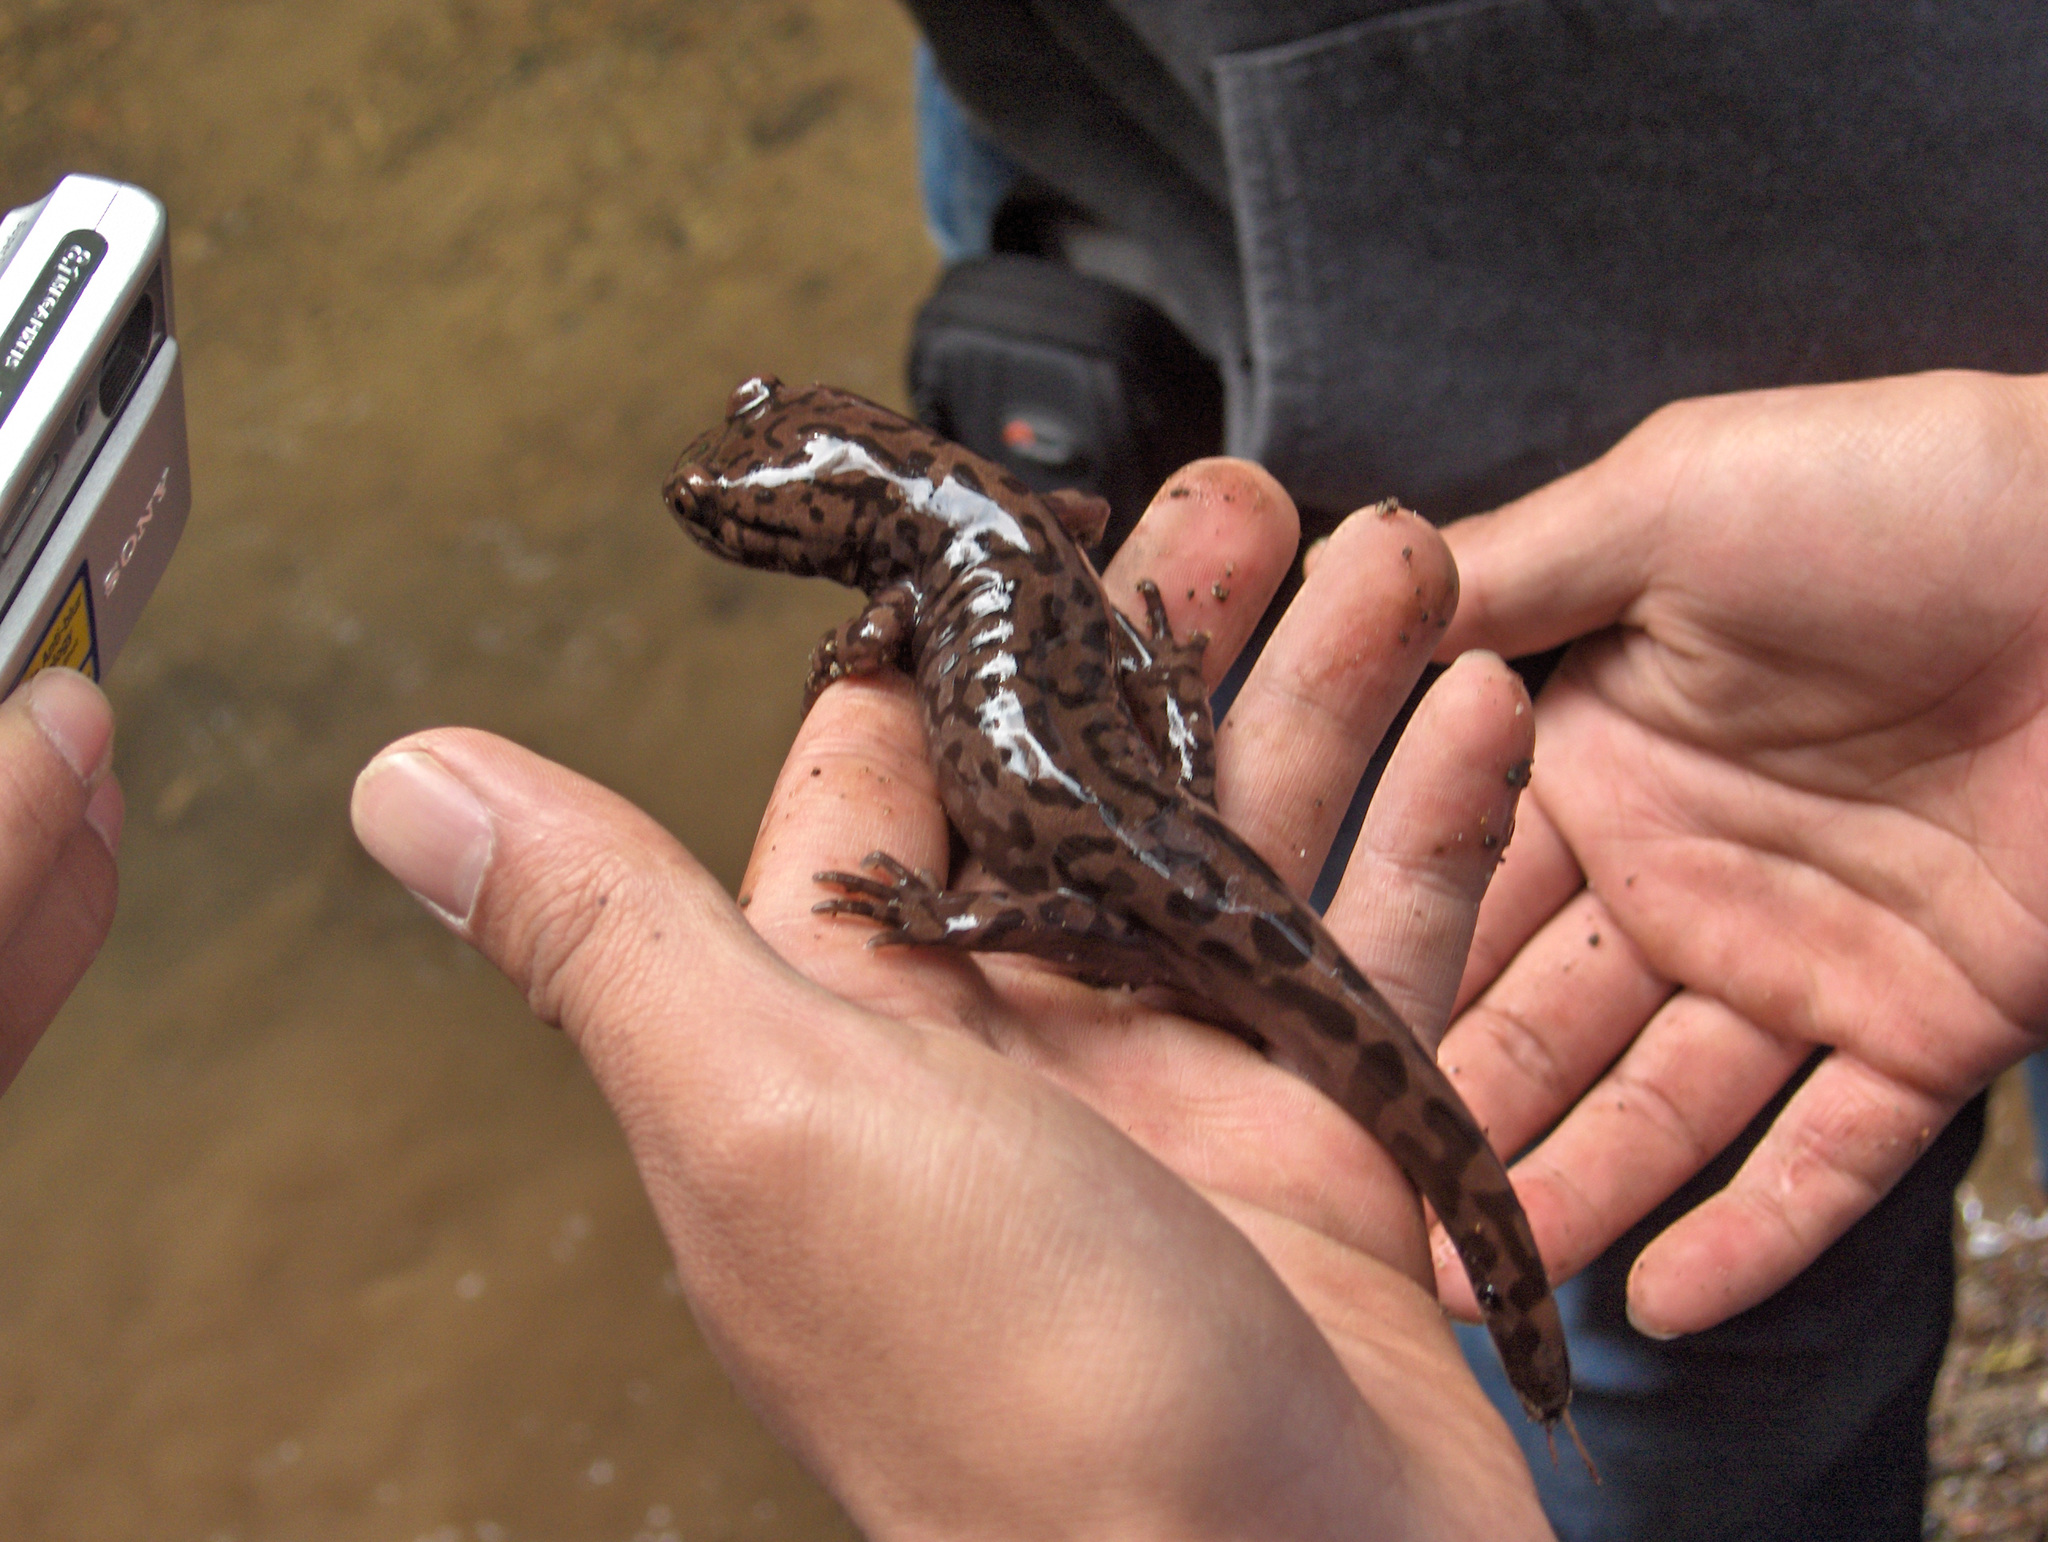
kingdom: Animalia
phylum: Chordata
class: Amphibia
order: Caudata
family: Ambystomatidae
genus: Dicamptodon
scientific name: Dicamptodon tenebrosus
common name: Coastal giant salamander
